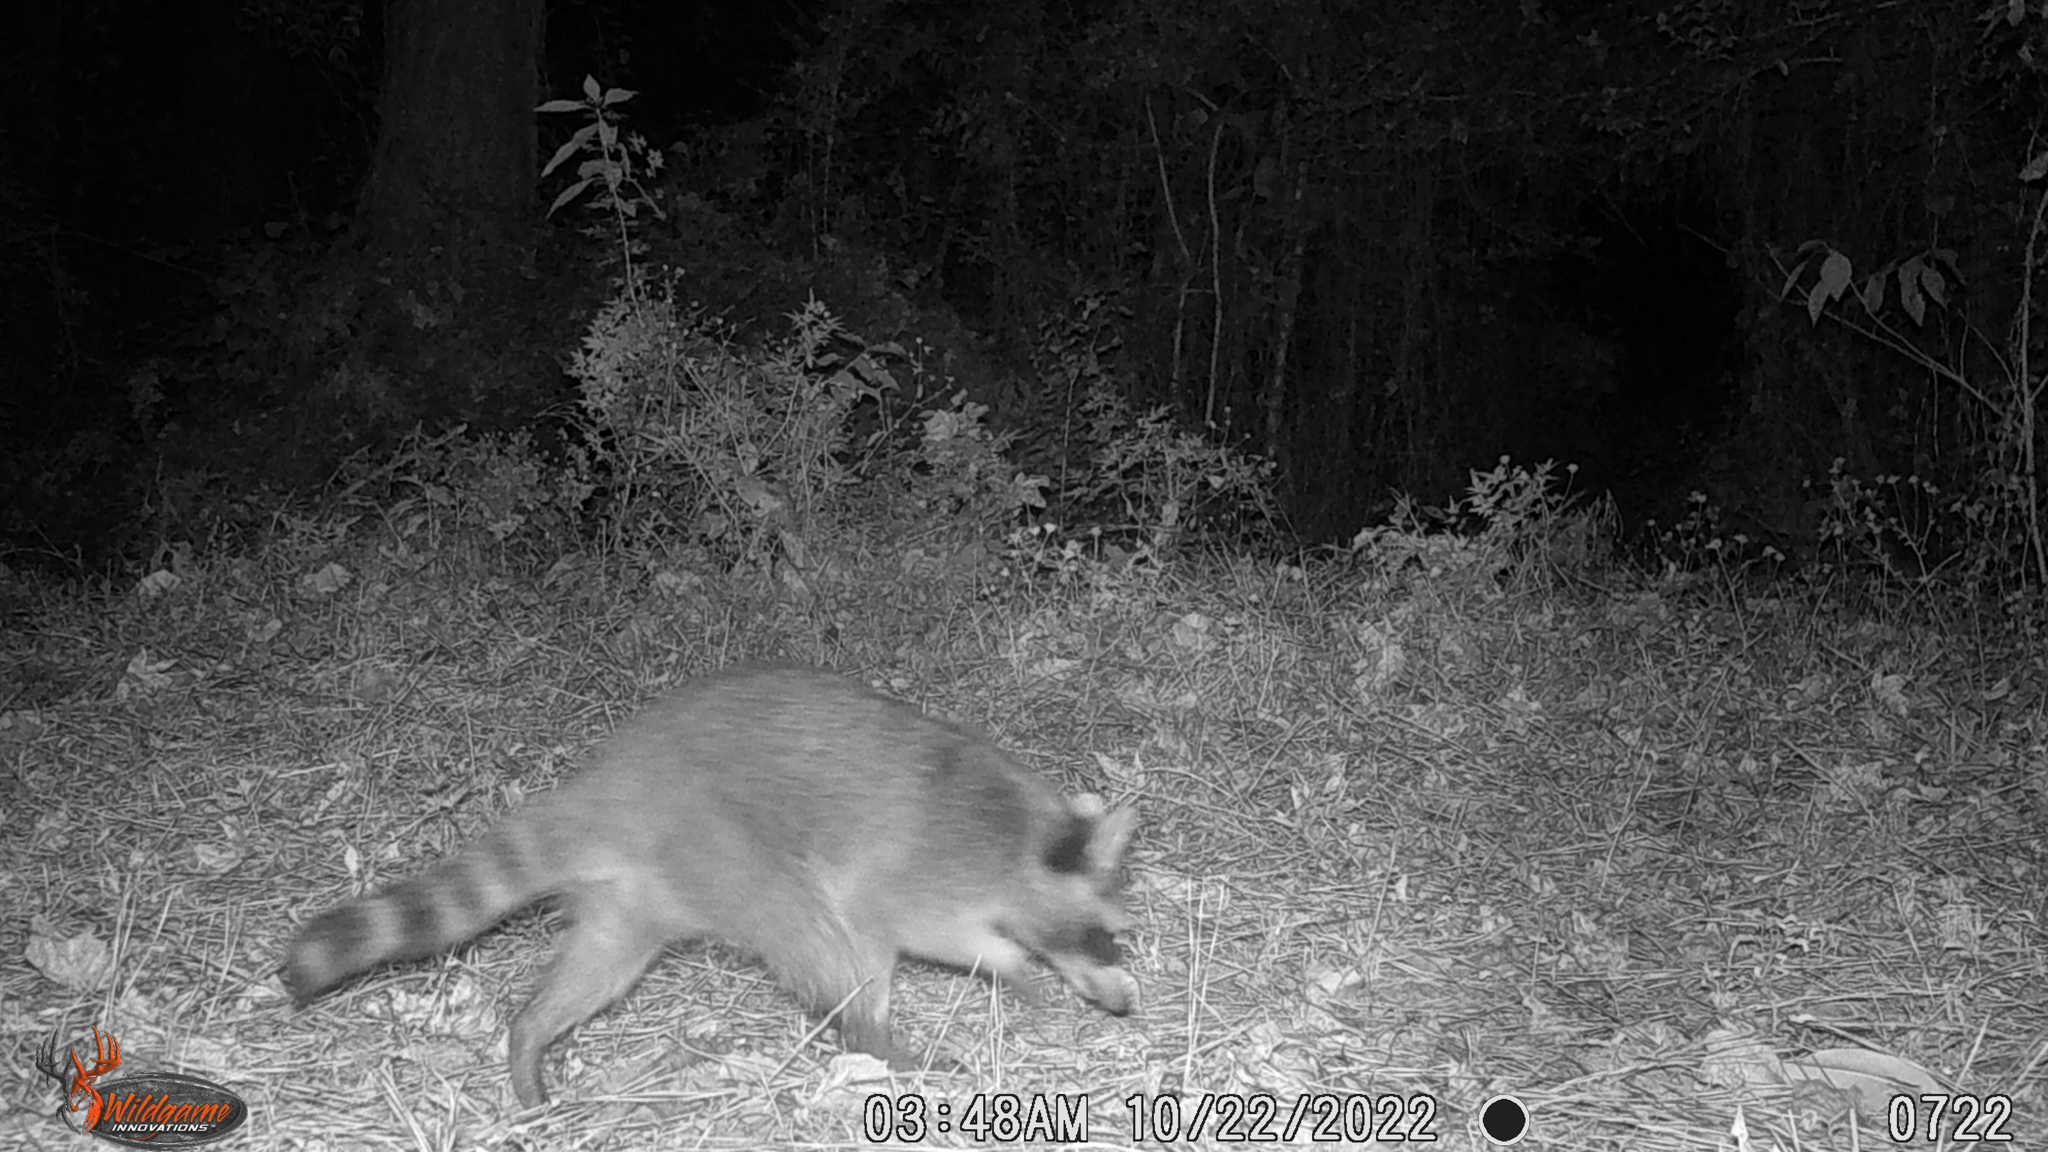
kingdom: Animalia
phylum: Chordata
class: Mammalia
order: Carnivora
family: Procyonidae
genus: Procyon
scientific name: Procyon lotor
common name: Raccoon
